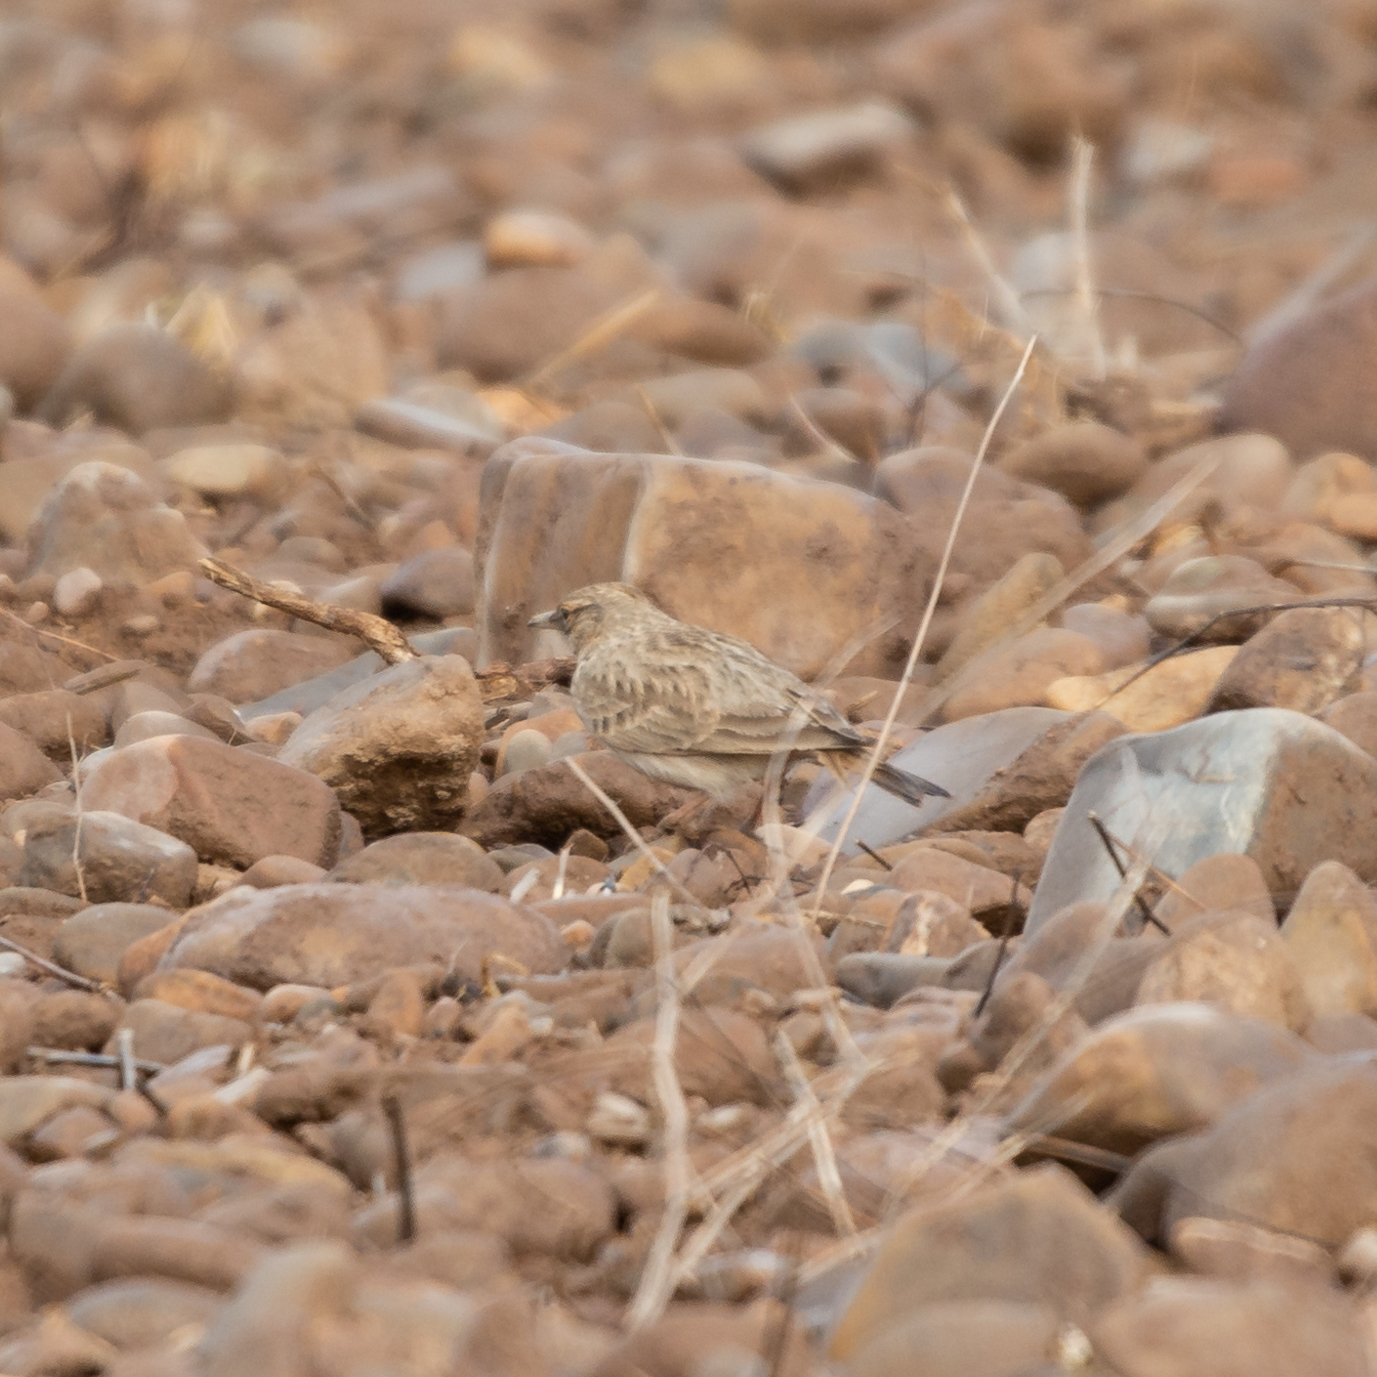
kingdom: Animalia
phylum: Chordata
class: Aves
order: Passeriformes
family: Alaudidae
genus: Galerida
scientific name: Galerida cristata
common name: Crested lark
